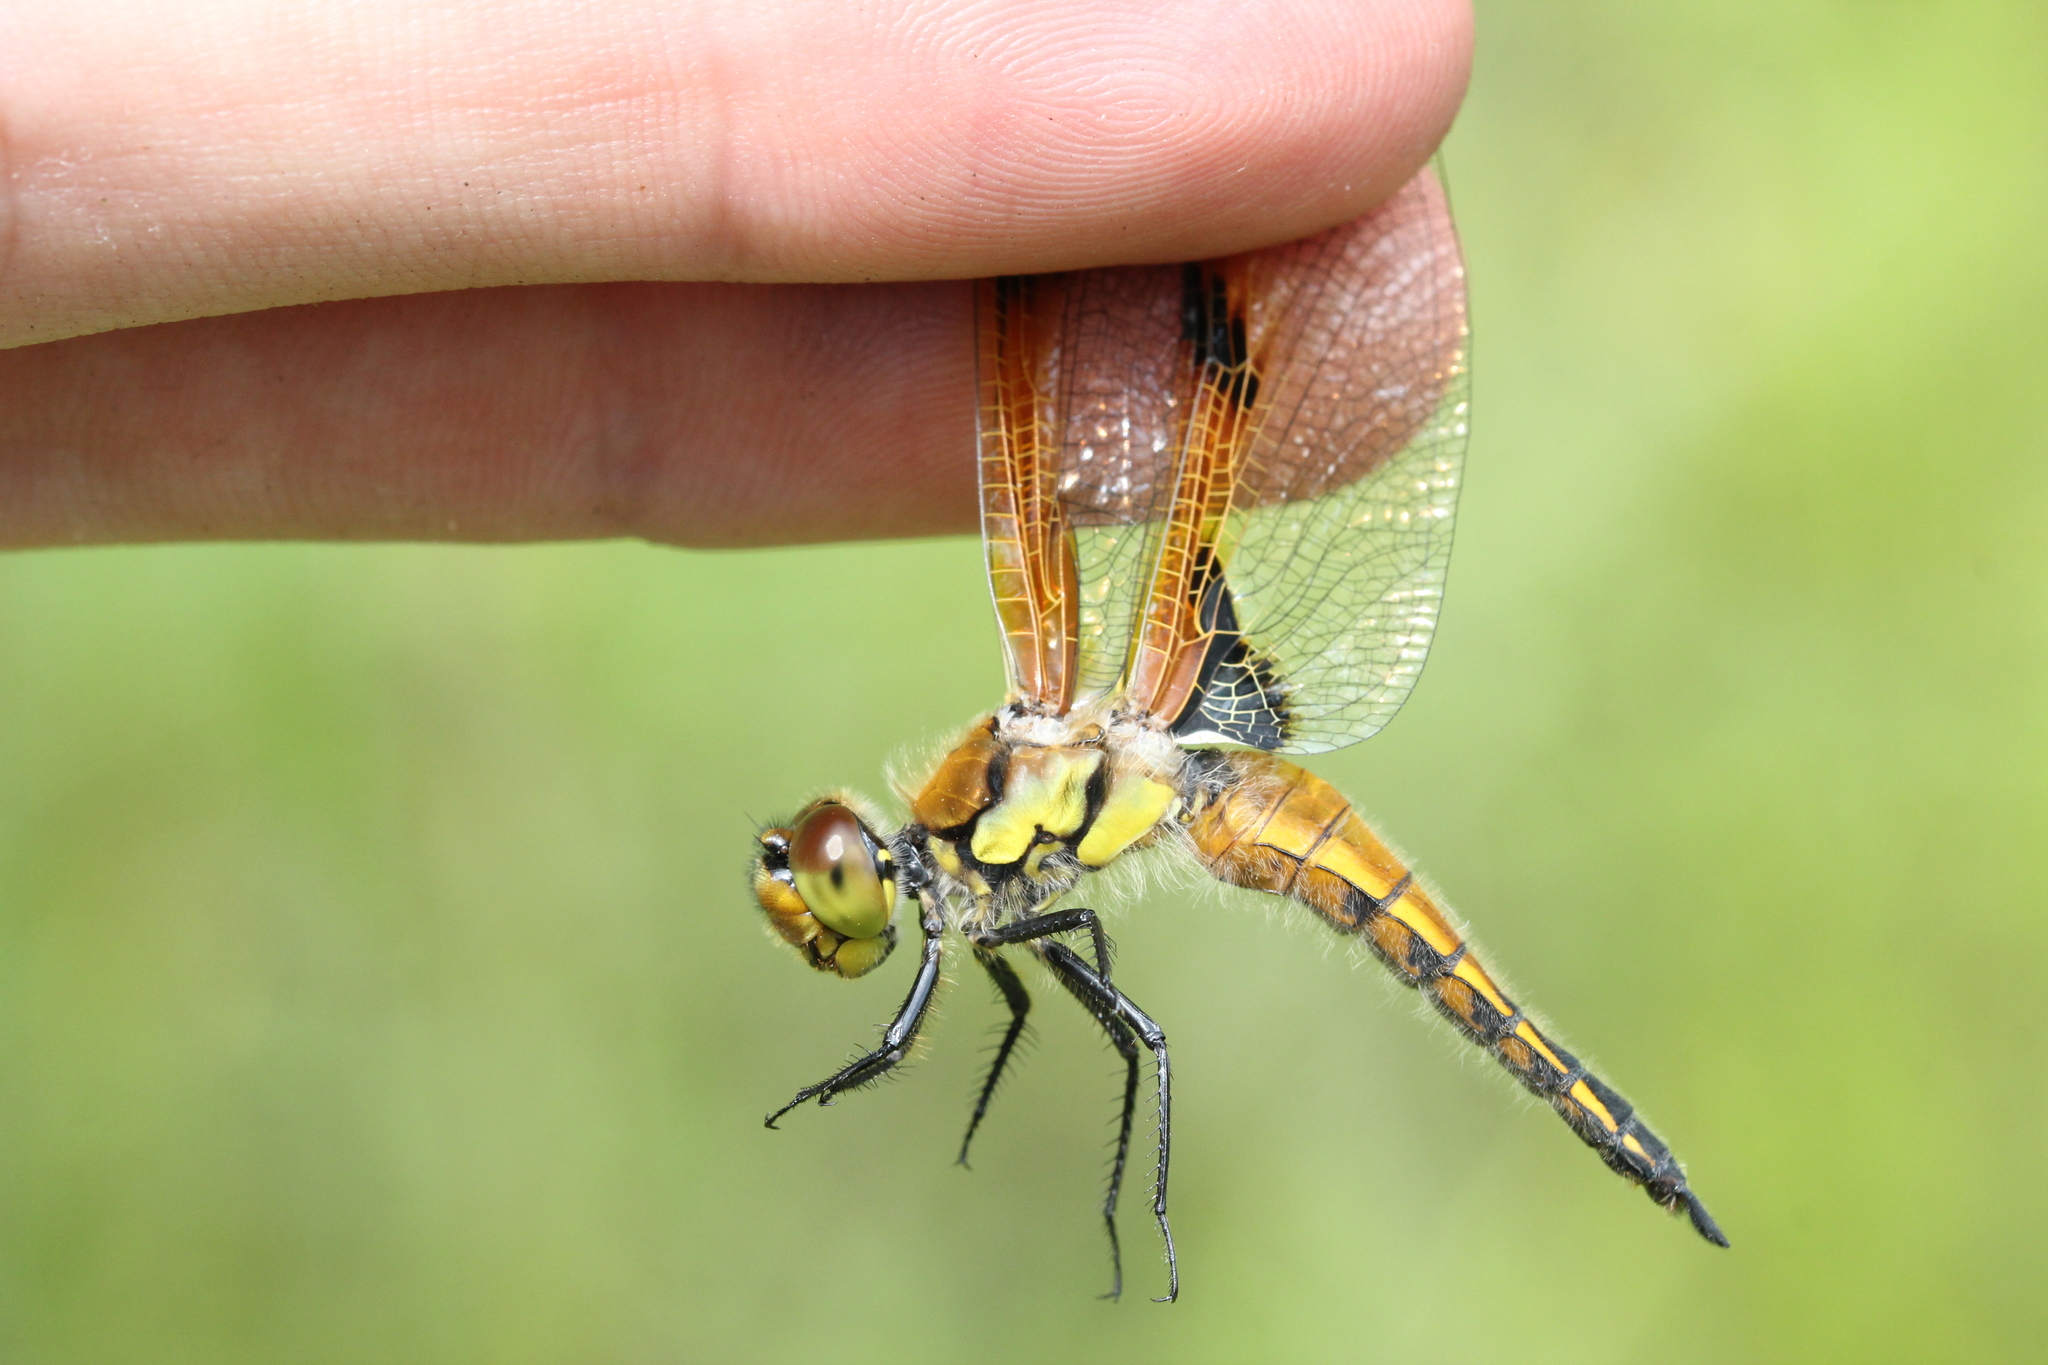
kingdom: Animalia
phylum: Arthropoda
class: Insecta
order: Odonata
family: Libellulidae
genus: Libellula
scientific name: Libellula quadrimaculata
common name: Four-spotted chaser
